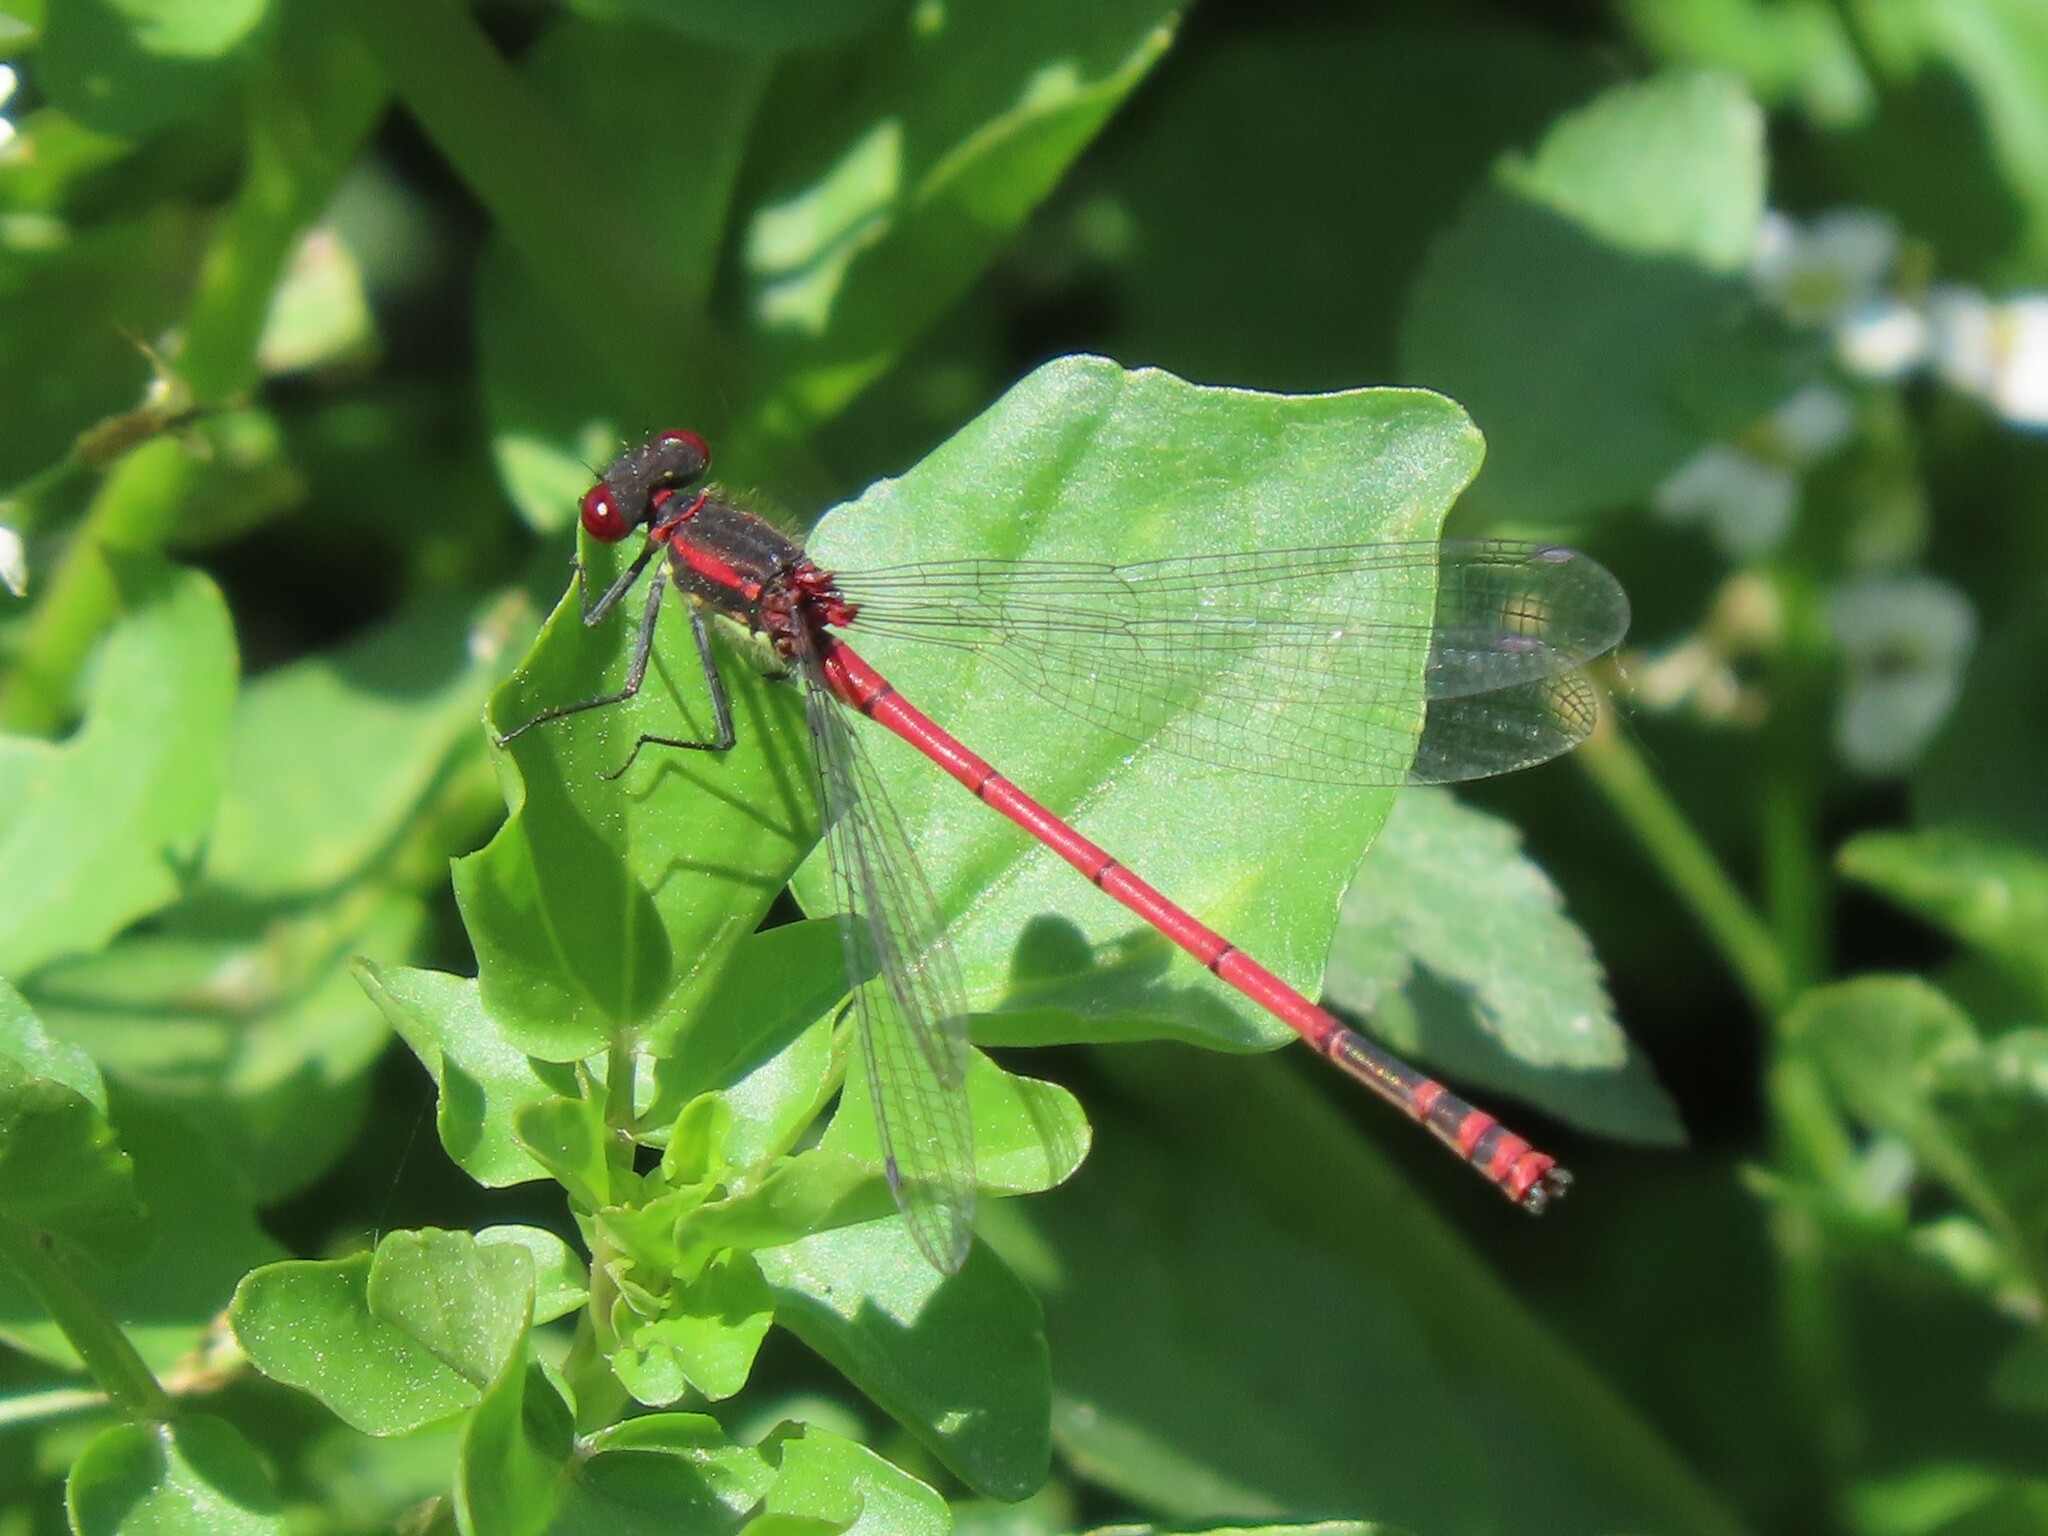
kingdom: Animalia
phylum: Arthropoda
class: Insecta
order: Odonata
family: Coenagrionidae
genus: Pyrrhosoma
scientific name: Pyrrhosoma nymphula
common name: Large red damsel
